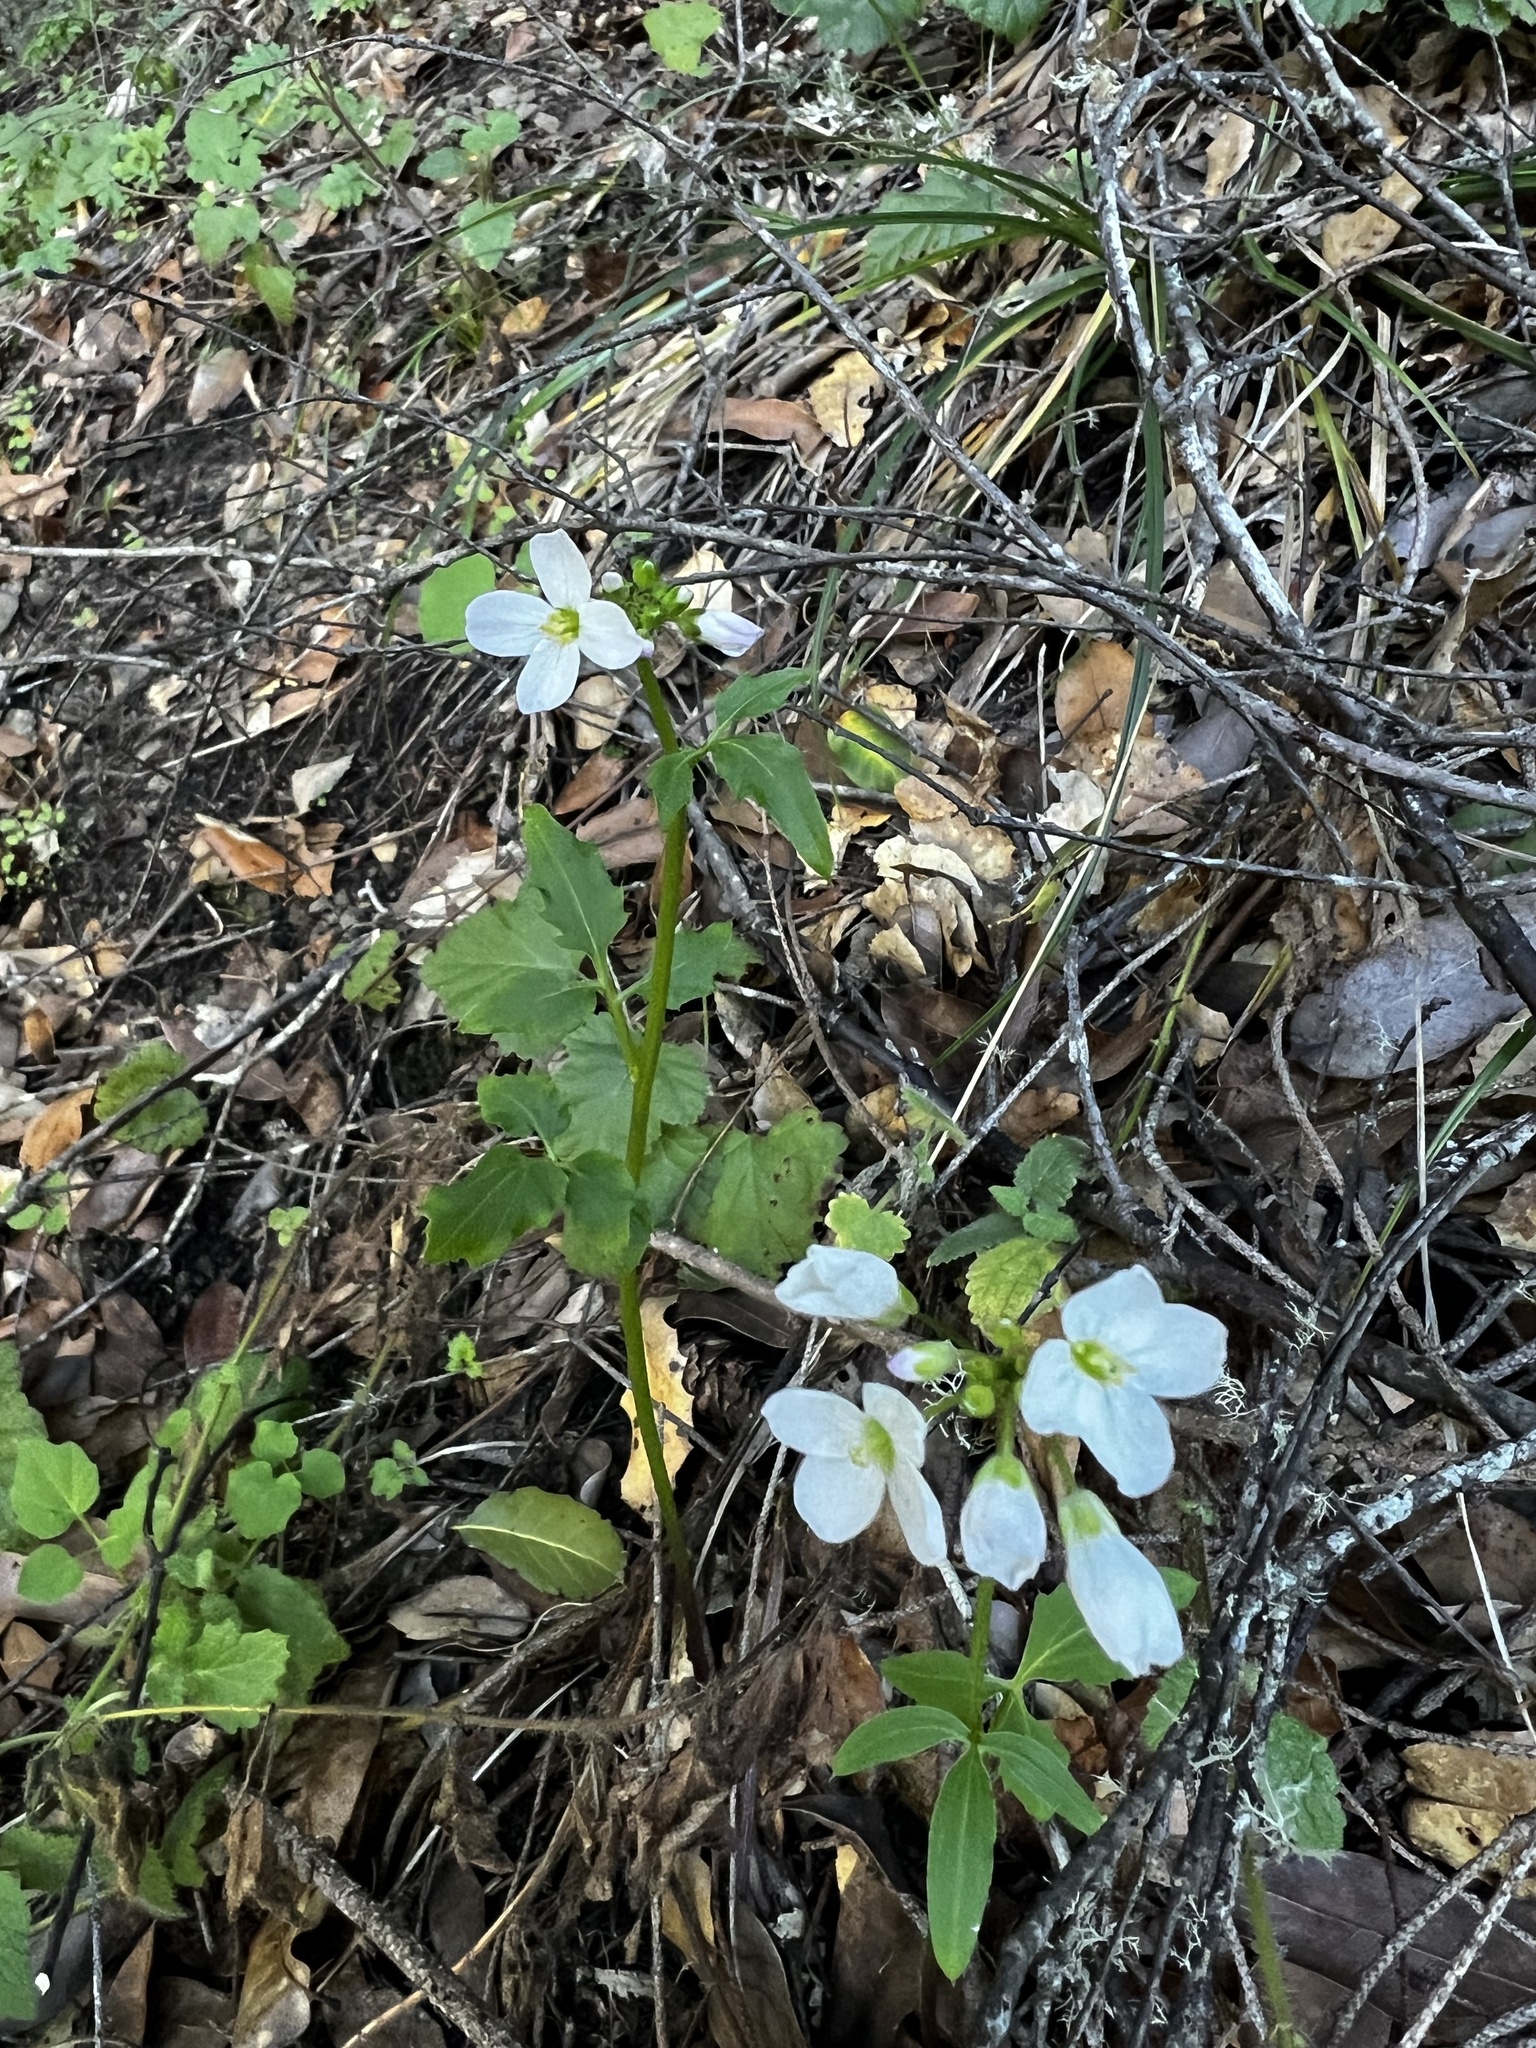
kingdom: Plantae
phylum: Tracheophyta
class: Magnoliopsida
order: Brassicales
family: Brassicaceae
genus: Cardamine
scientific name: Cardamine californica
